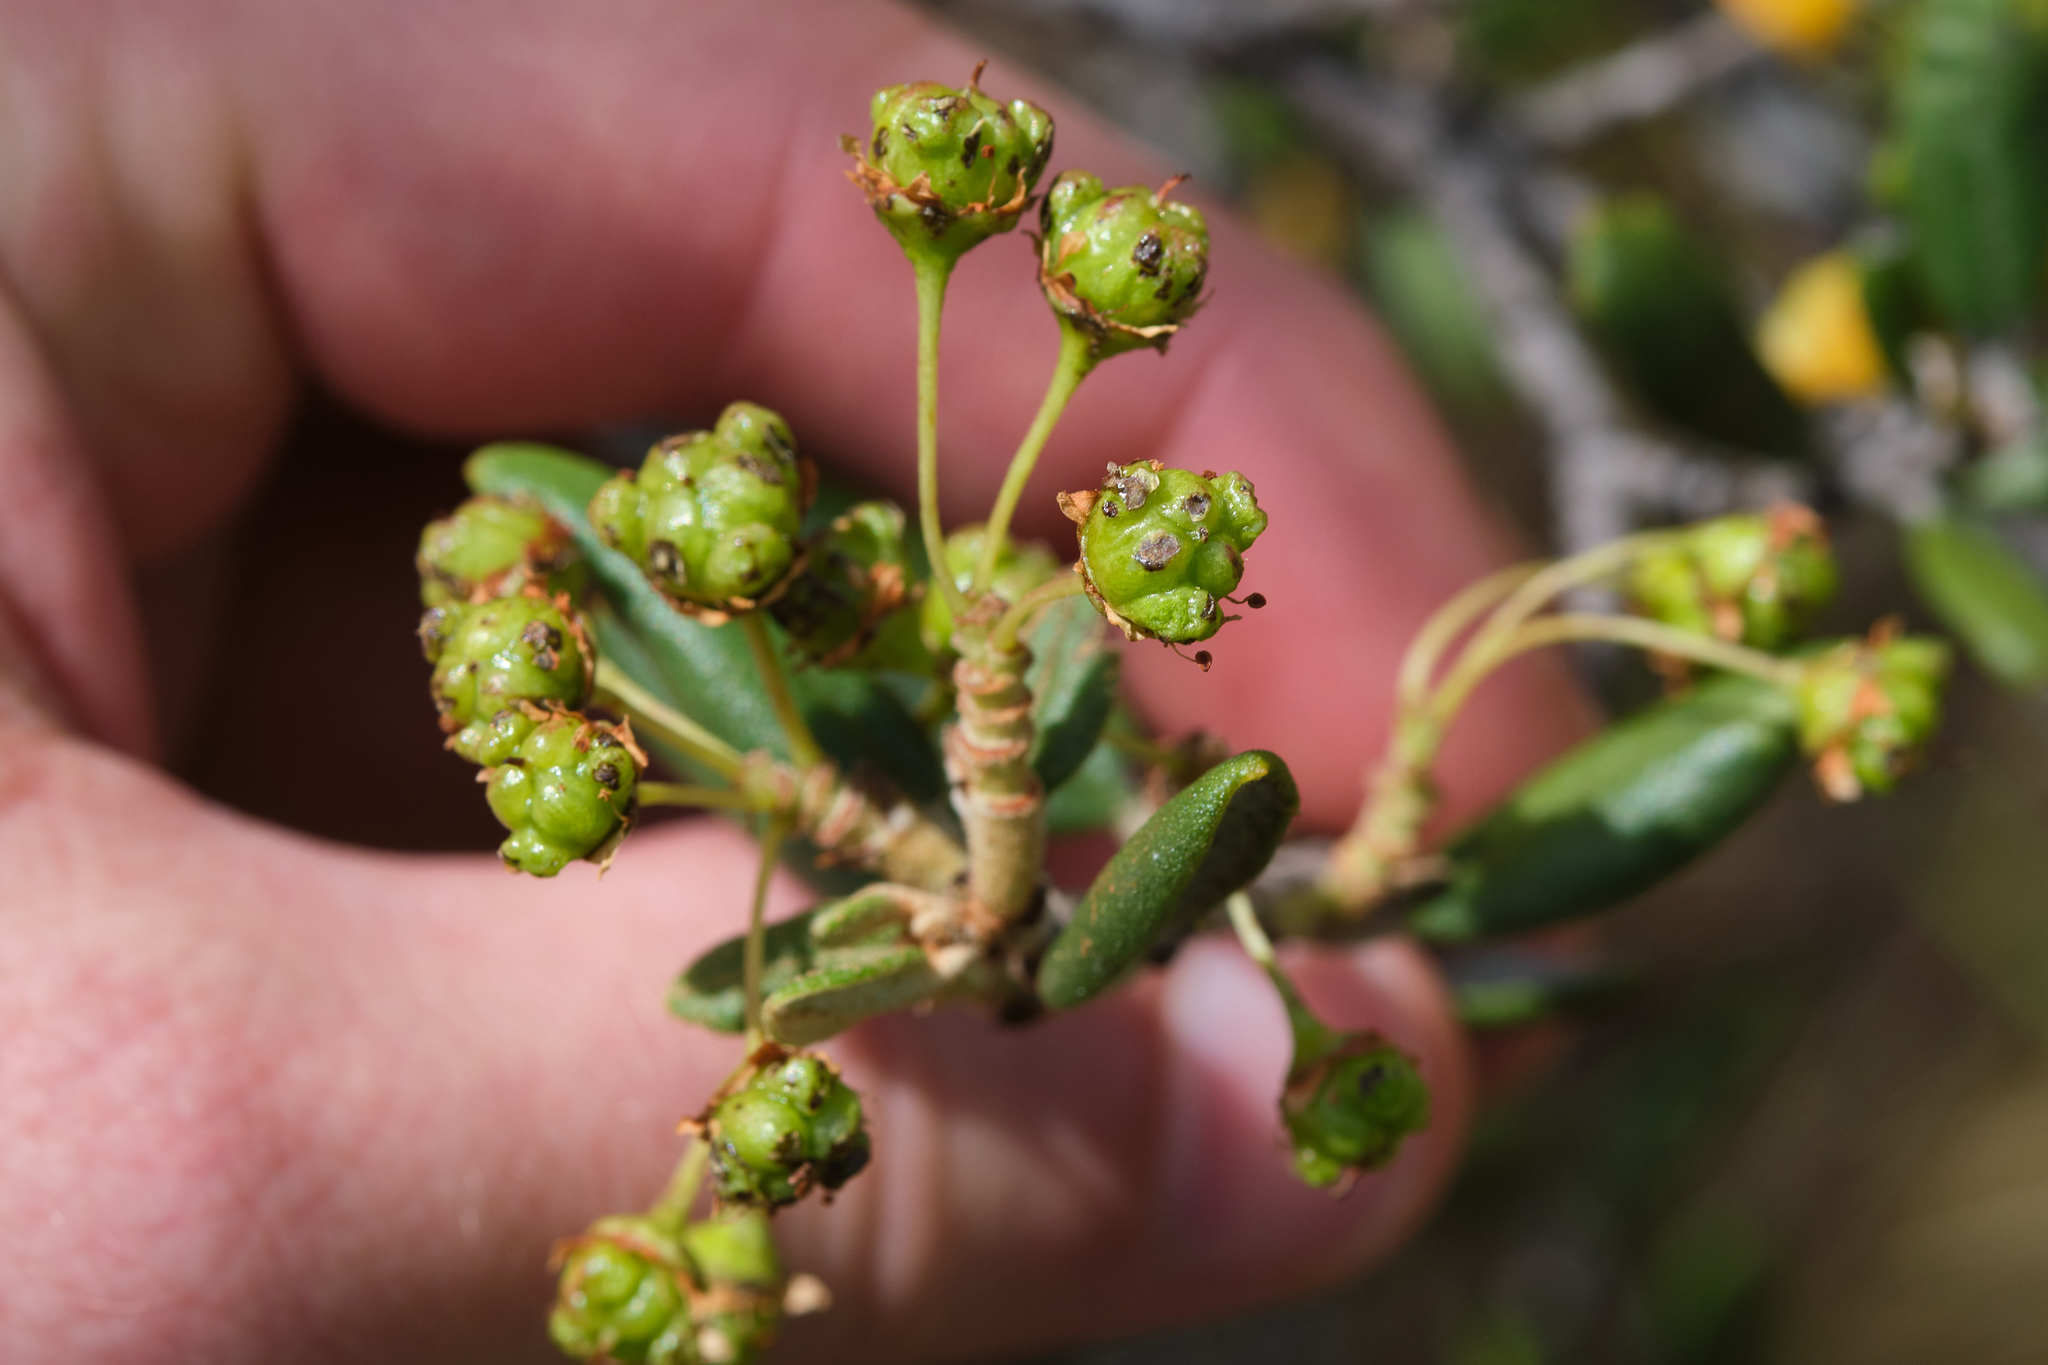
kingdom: Plantae
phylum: Tracheophyta
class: Magnoliopsida
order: Rosales
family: Rhamnaceae
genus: Ceanothus
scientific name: Ceanothus crassifolius
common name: Hoaryleaf ceanothus
